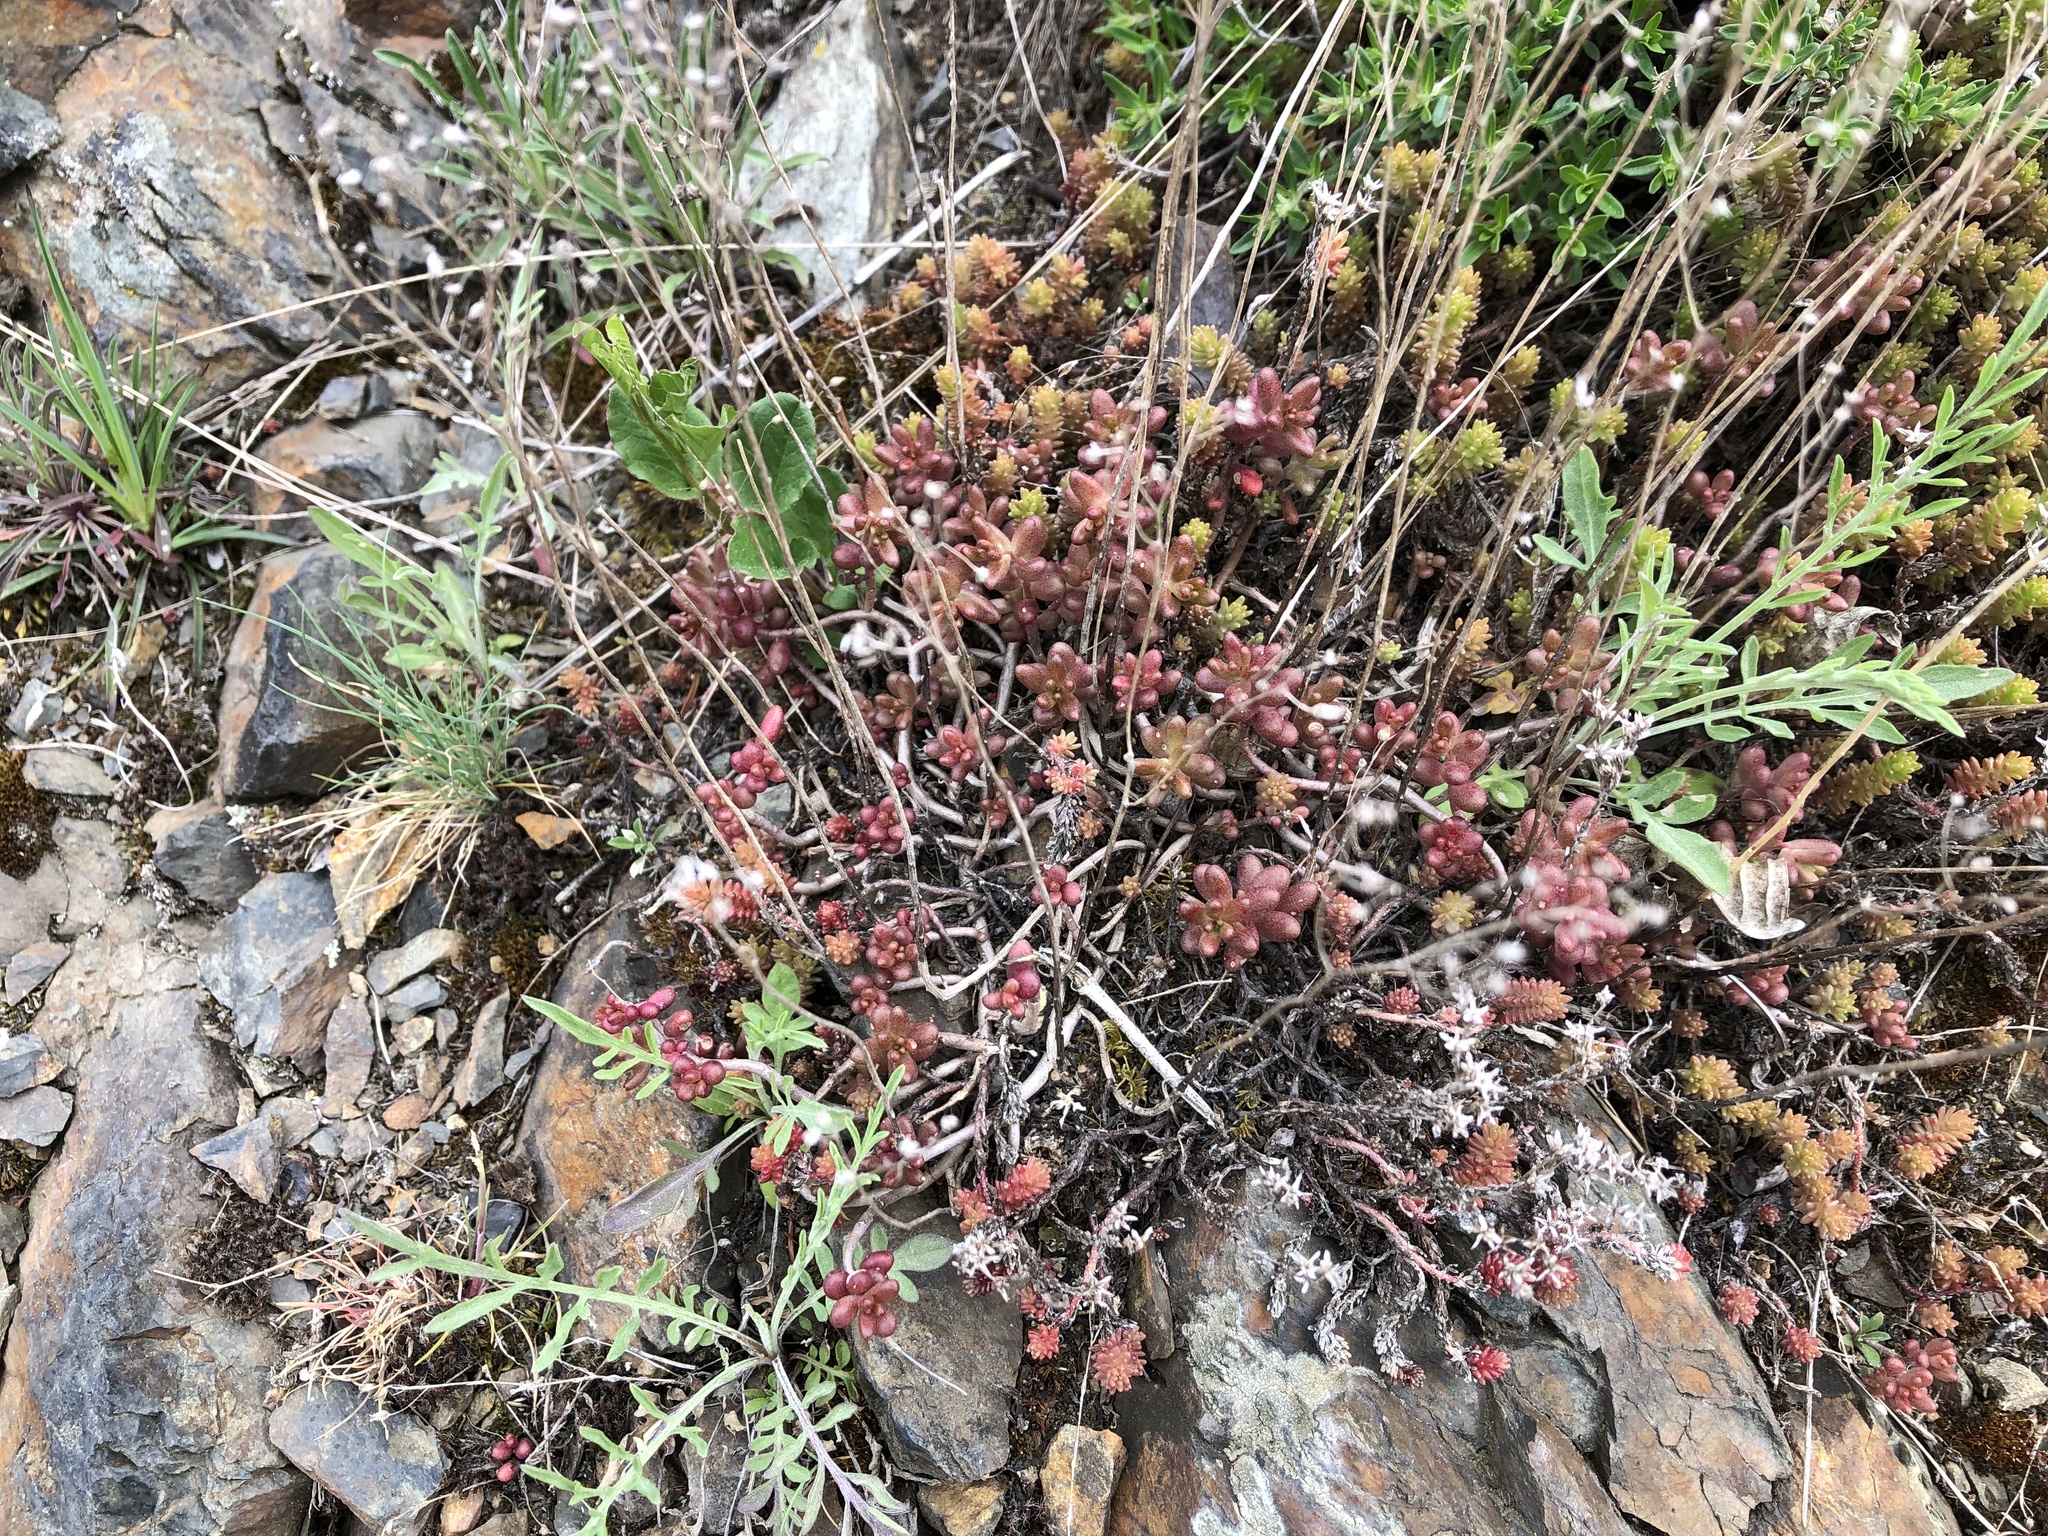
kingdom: Plantae
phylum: Tracheophyta
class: Magnoliopsida
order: Saxifragales
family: Crassulaceae
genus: Sedum
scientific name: Sedum album
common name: White stonecrop
